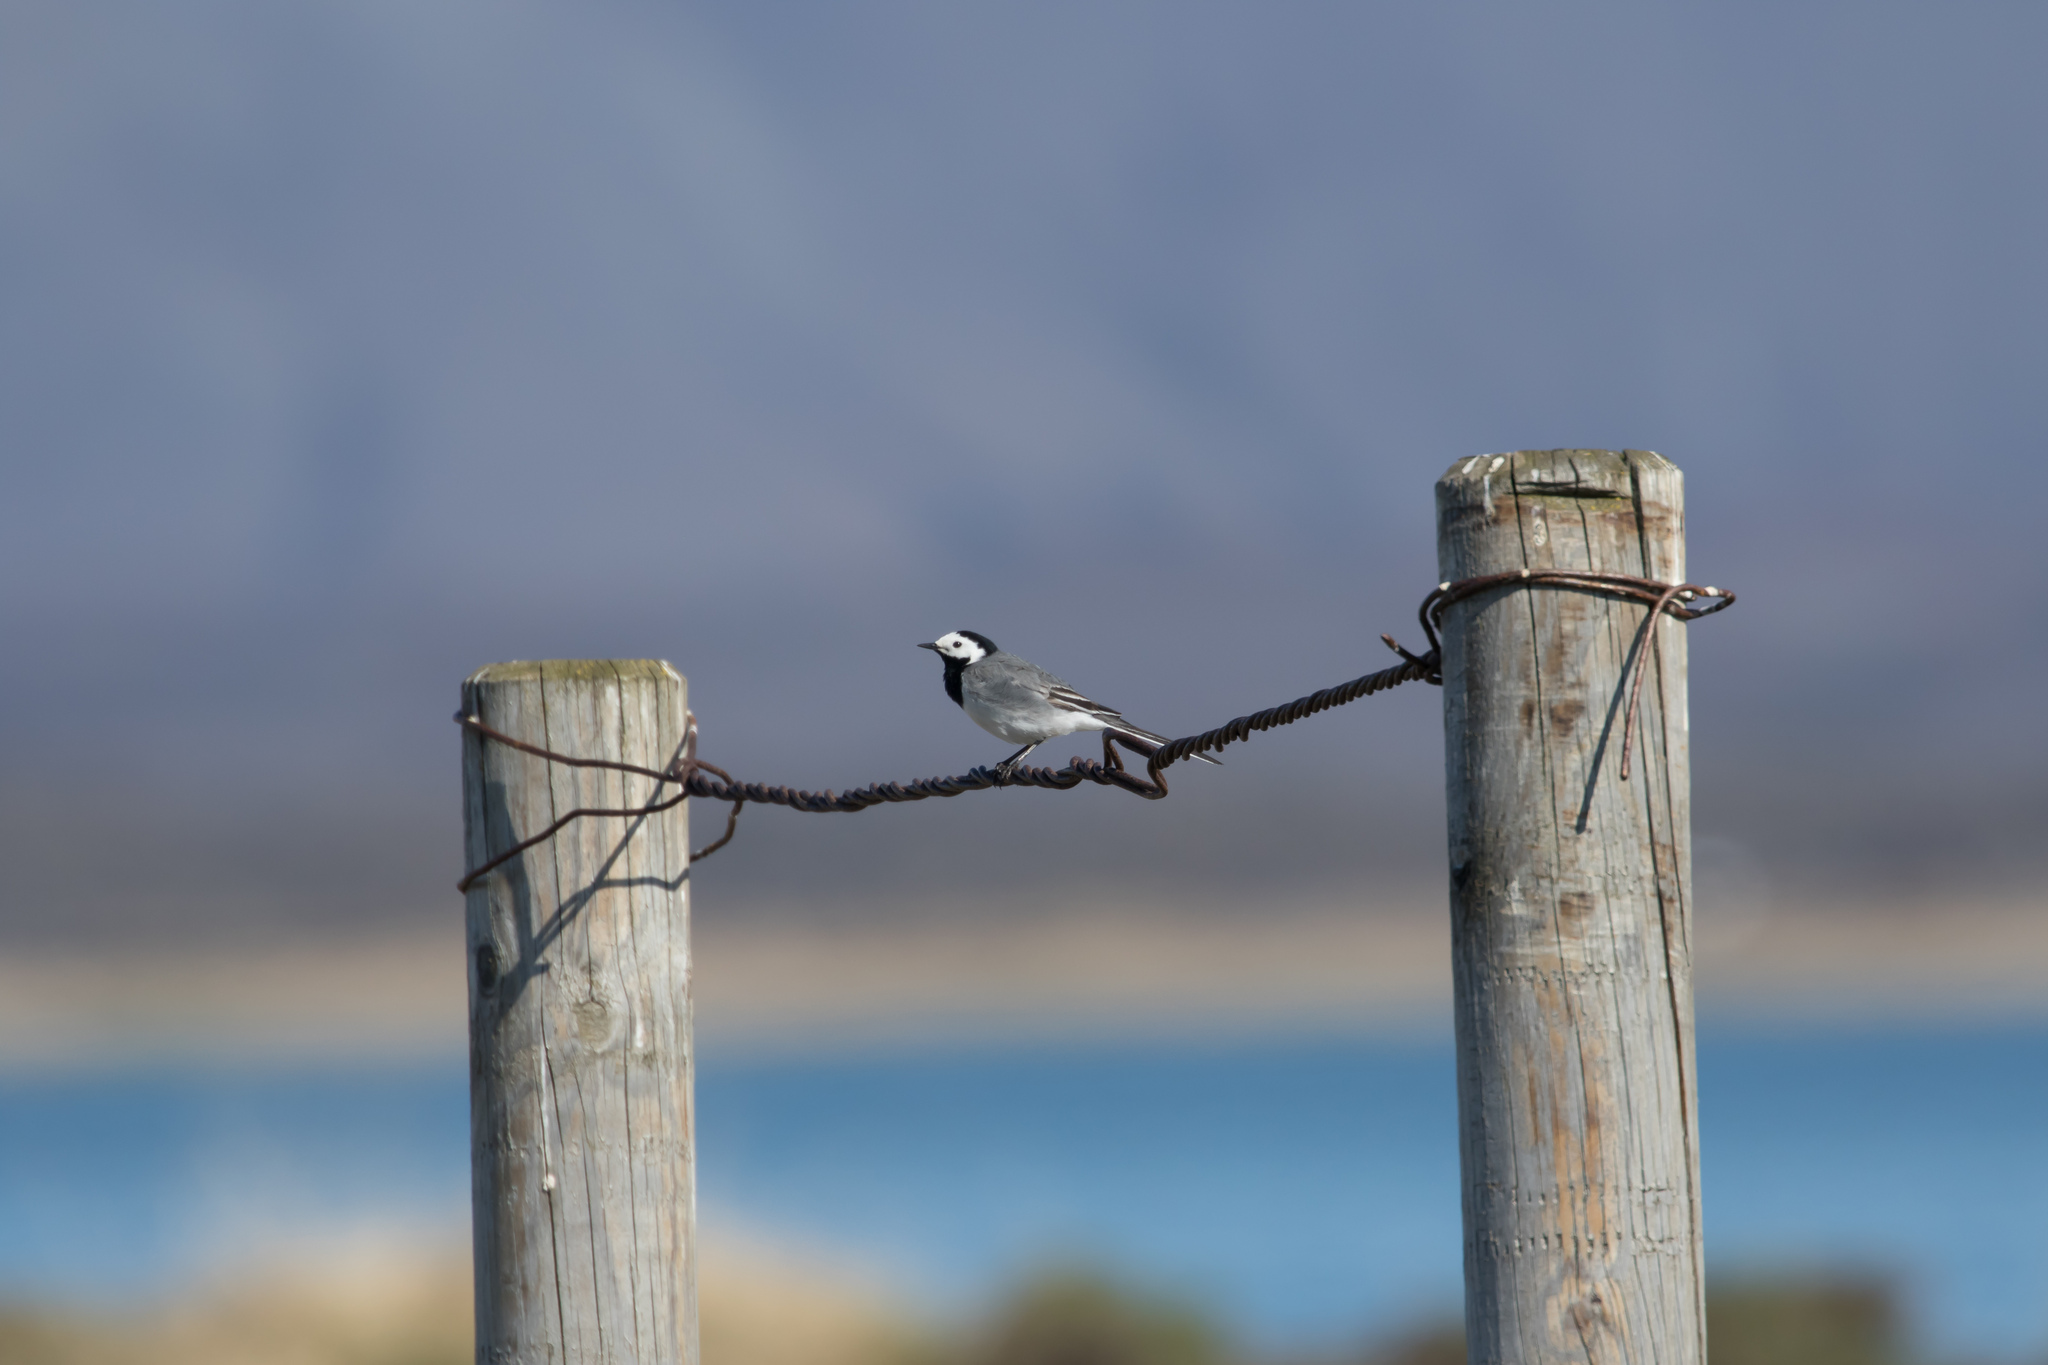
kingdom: Animalia
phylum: Chordata
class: Aves
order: Passeriformes
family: Motacillidae
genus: Motacilla
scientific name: Motacilla alba
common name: White wagtail
